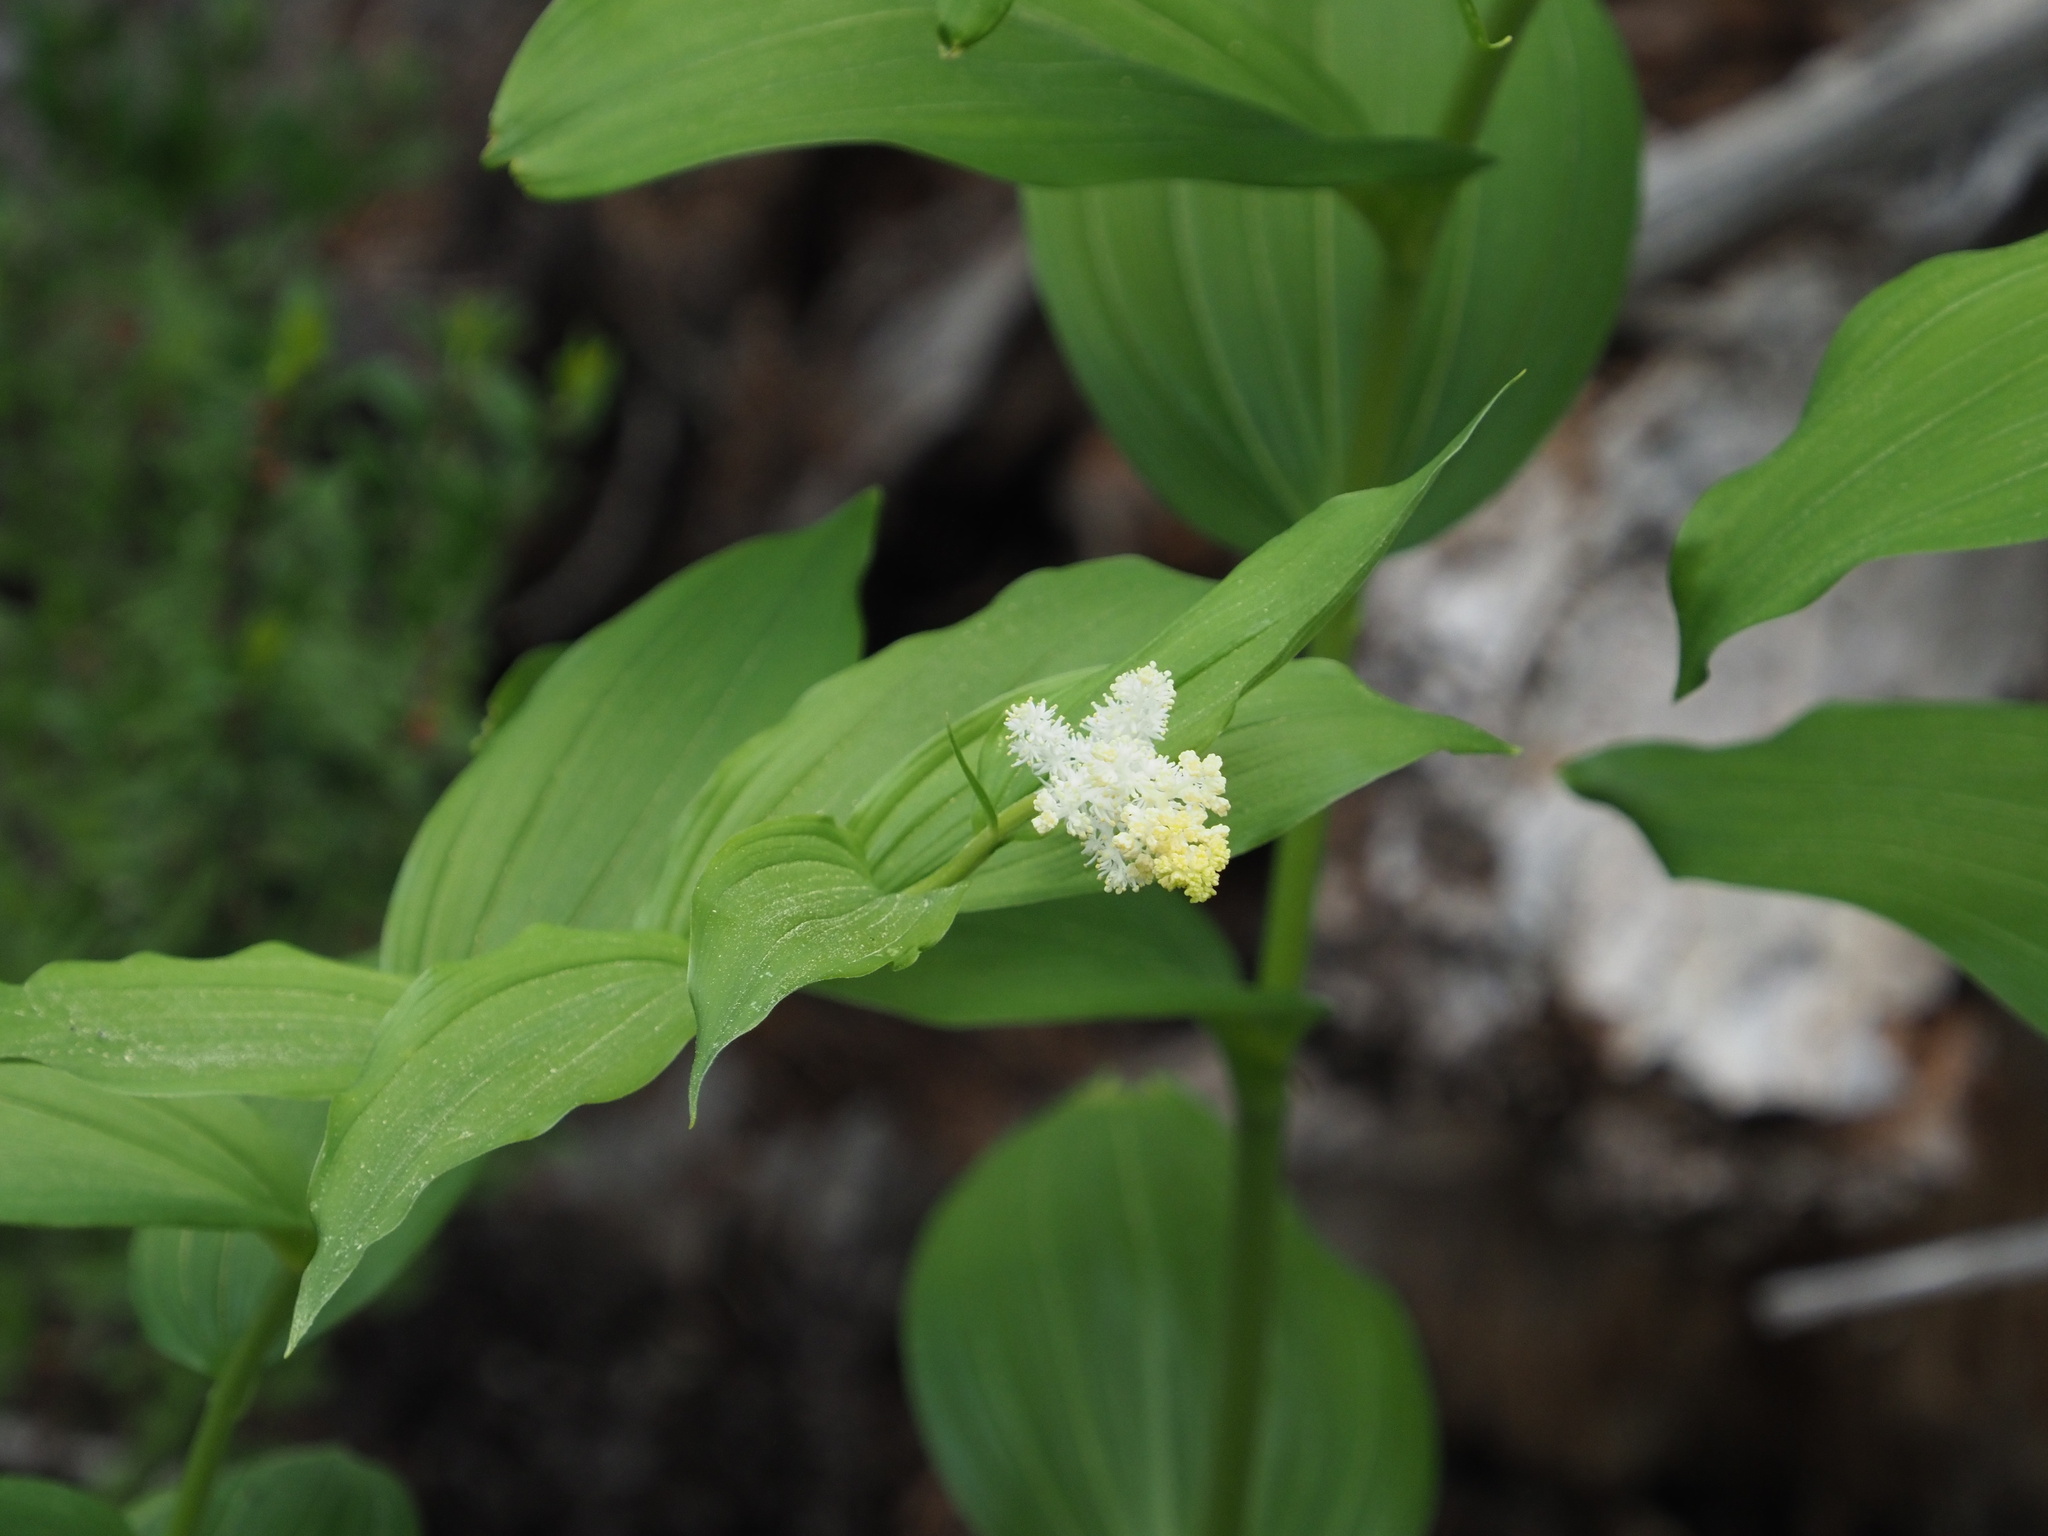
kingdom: Plantae
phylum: Tracheophyta
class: Liliopsida
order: Asparagales
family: Asparagaceae
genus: Maianthemum
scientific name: Maianthemum racemosum
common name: False spikenard
